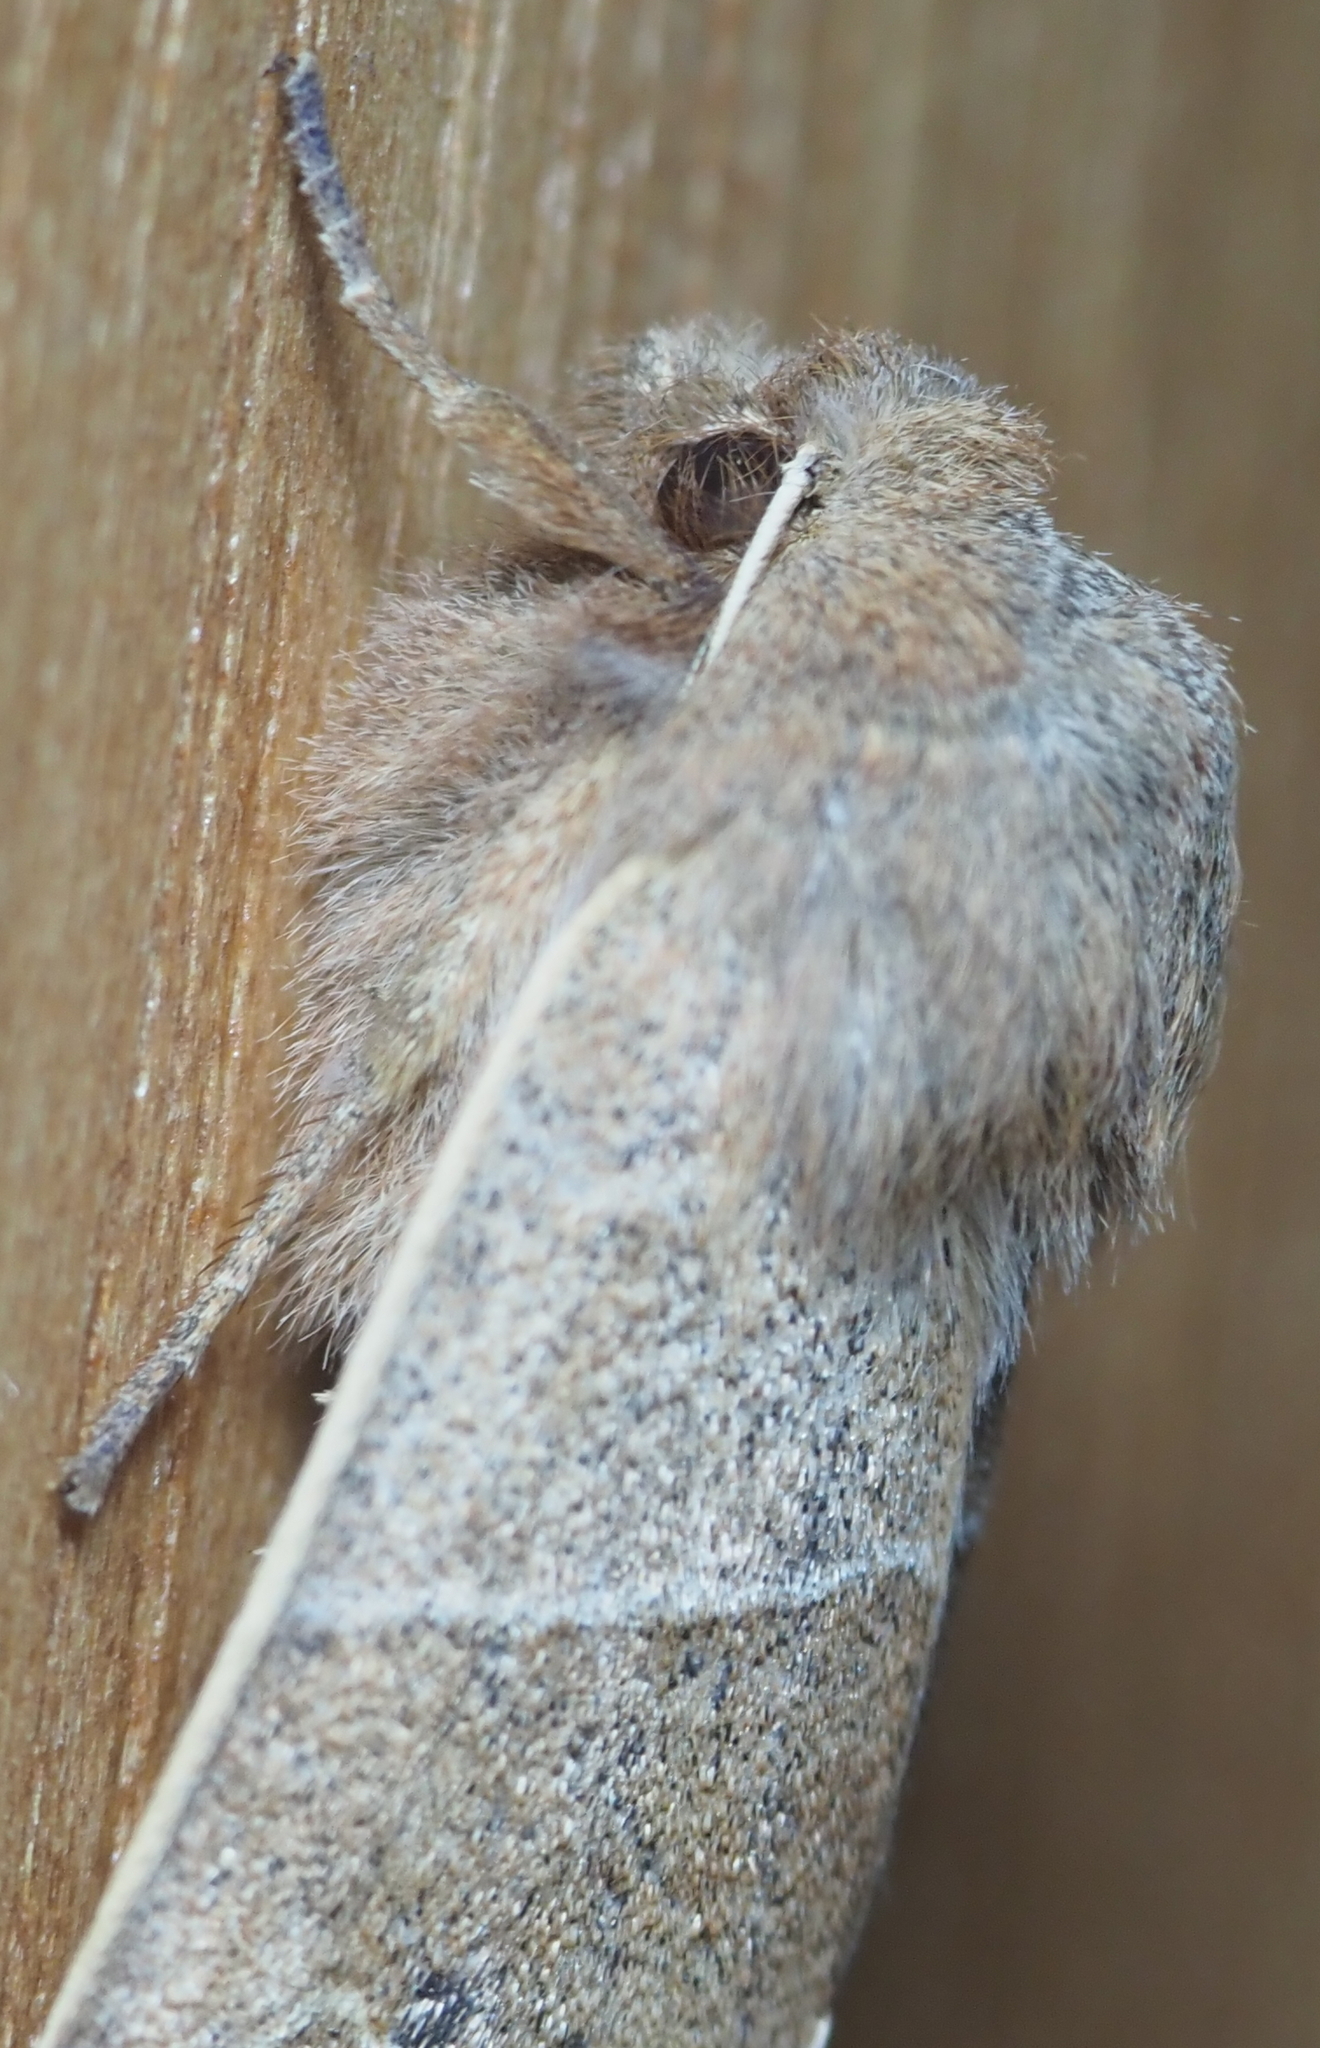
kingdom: Animalia
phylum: Arthropoda
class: Insecta
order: Lepidoptera
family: Noctuidae
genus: Eupsilia
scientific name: Eupsilia morrisoni
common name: Morrison's sallow
